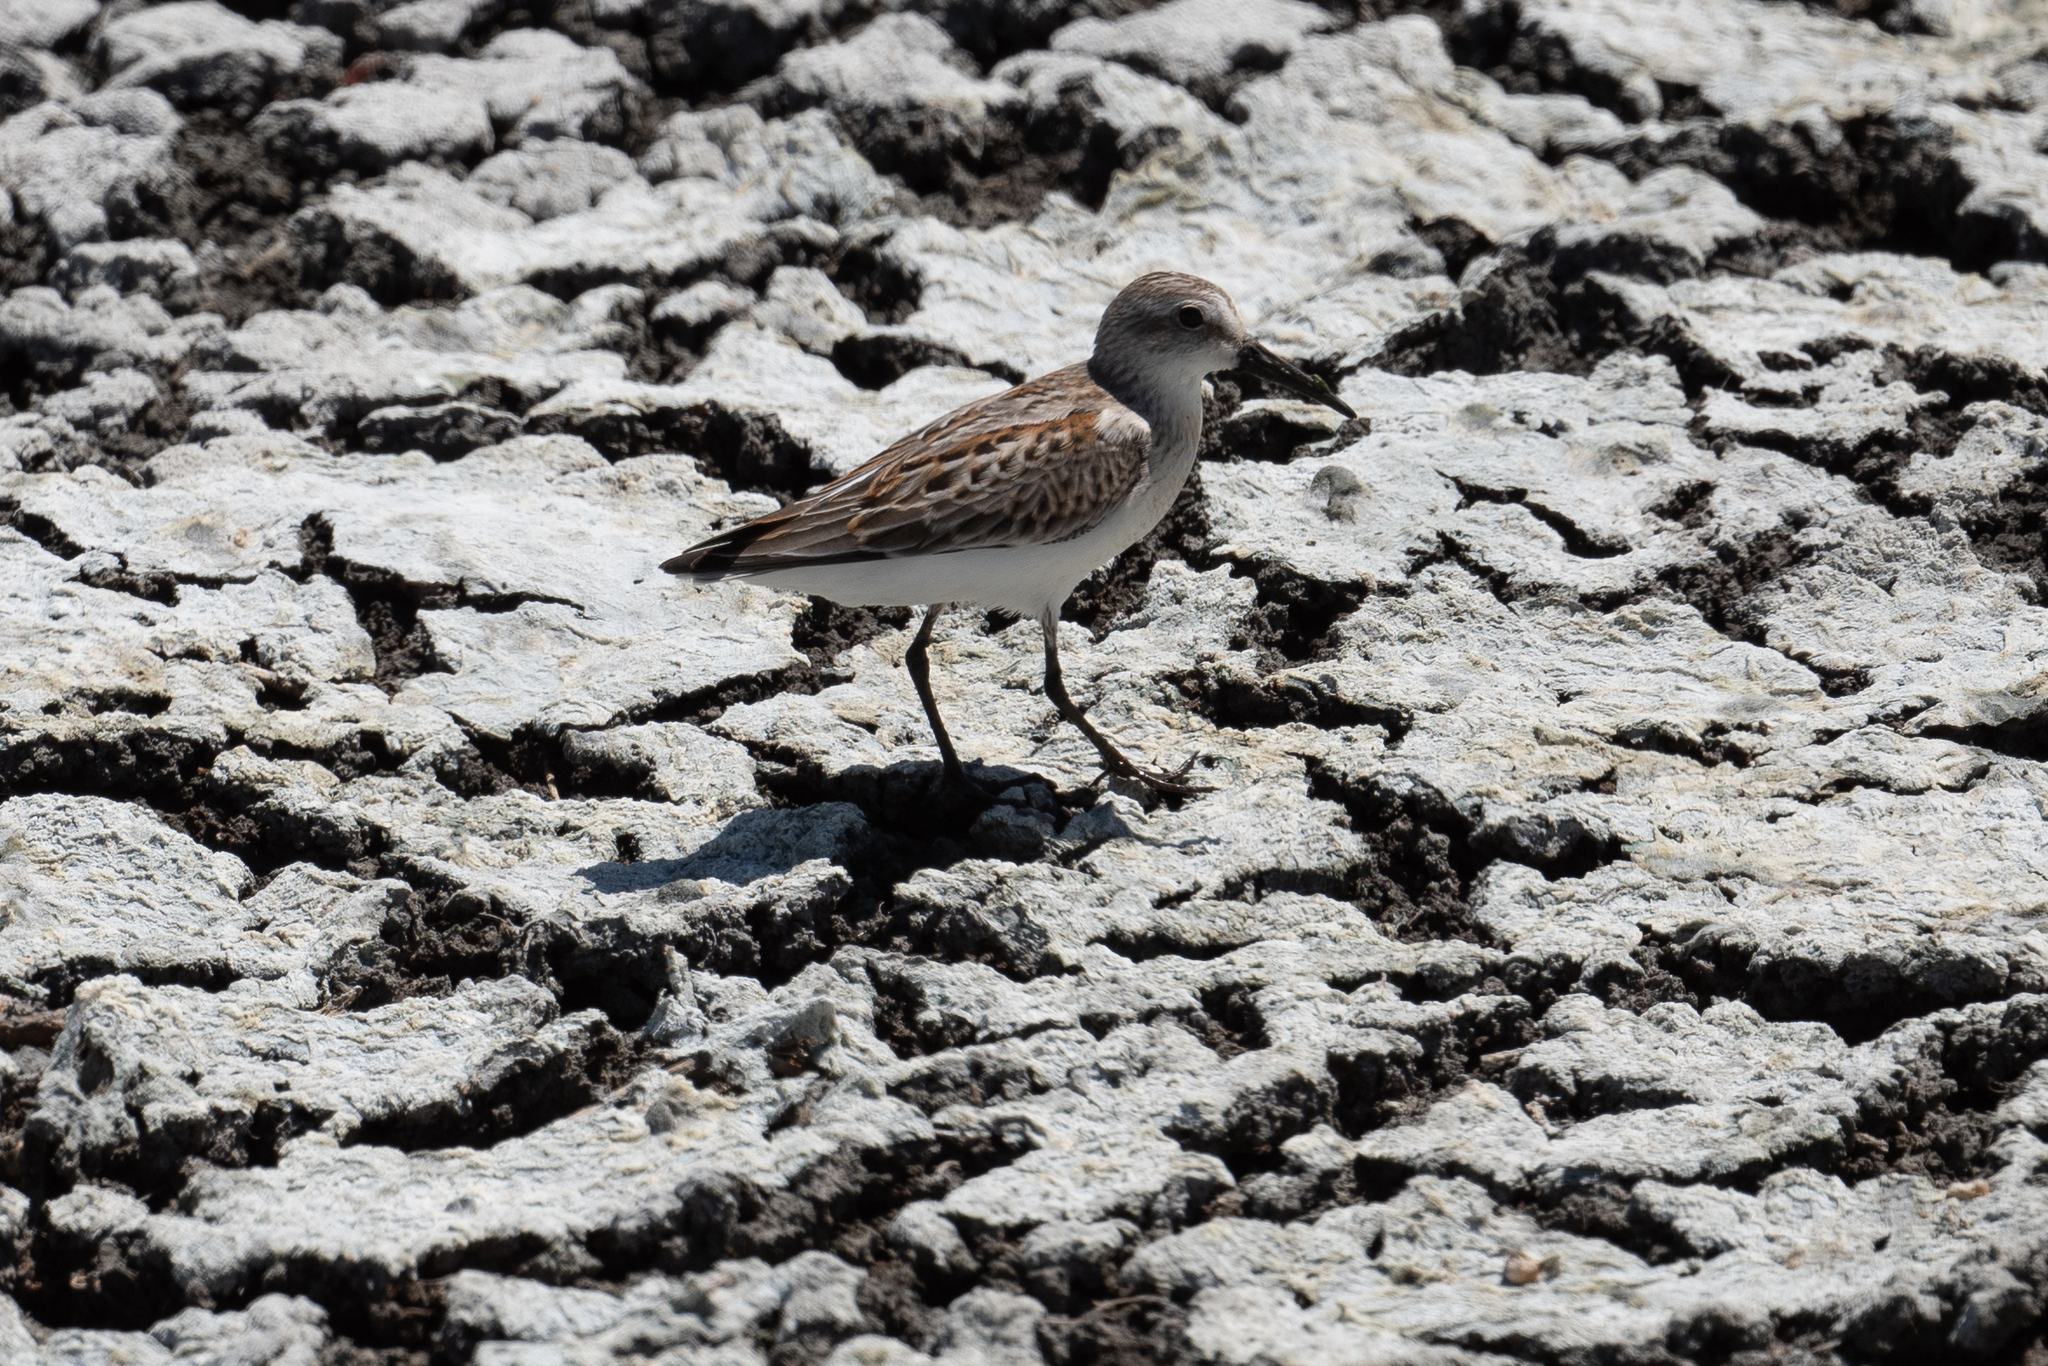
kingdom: Animalia
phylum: Chordata
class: Aves
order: Charadriiformes
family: Scolopacidae
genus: Calidris
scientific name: Calidris mauri
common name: Western sandpiper
